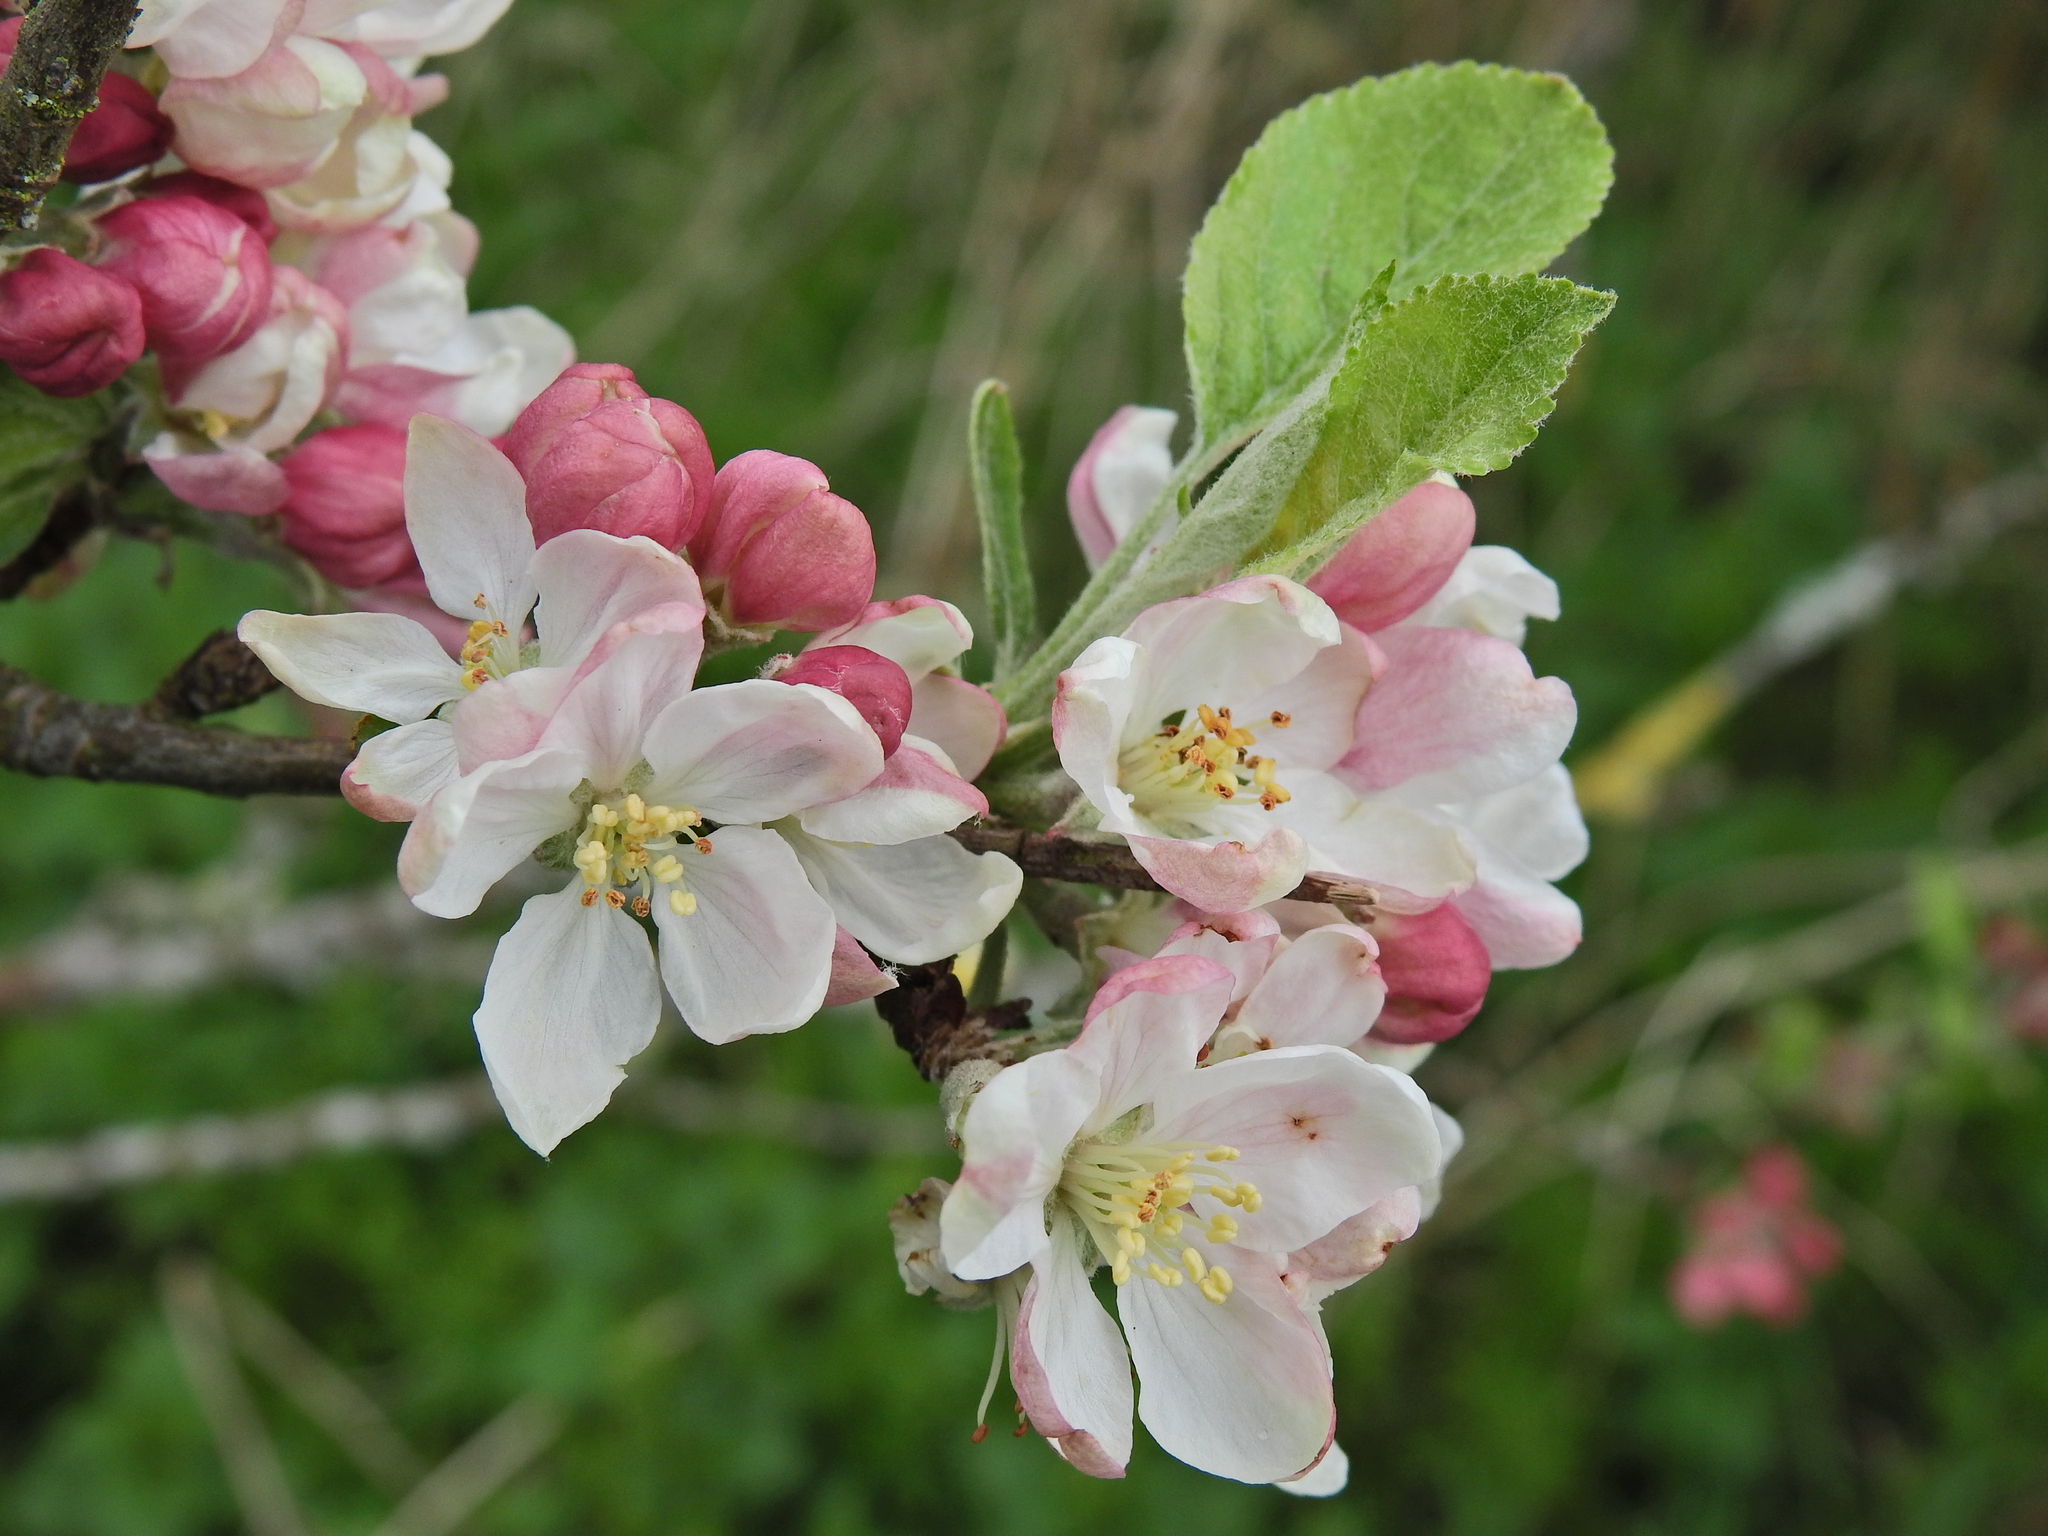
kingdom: Plantae
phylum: Tracheophyta
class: Magnoliopsida
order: Rosales
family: Rosaceae
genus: Malus
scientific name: Malus domestica
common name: Apple
